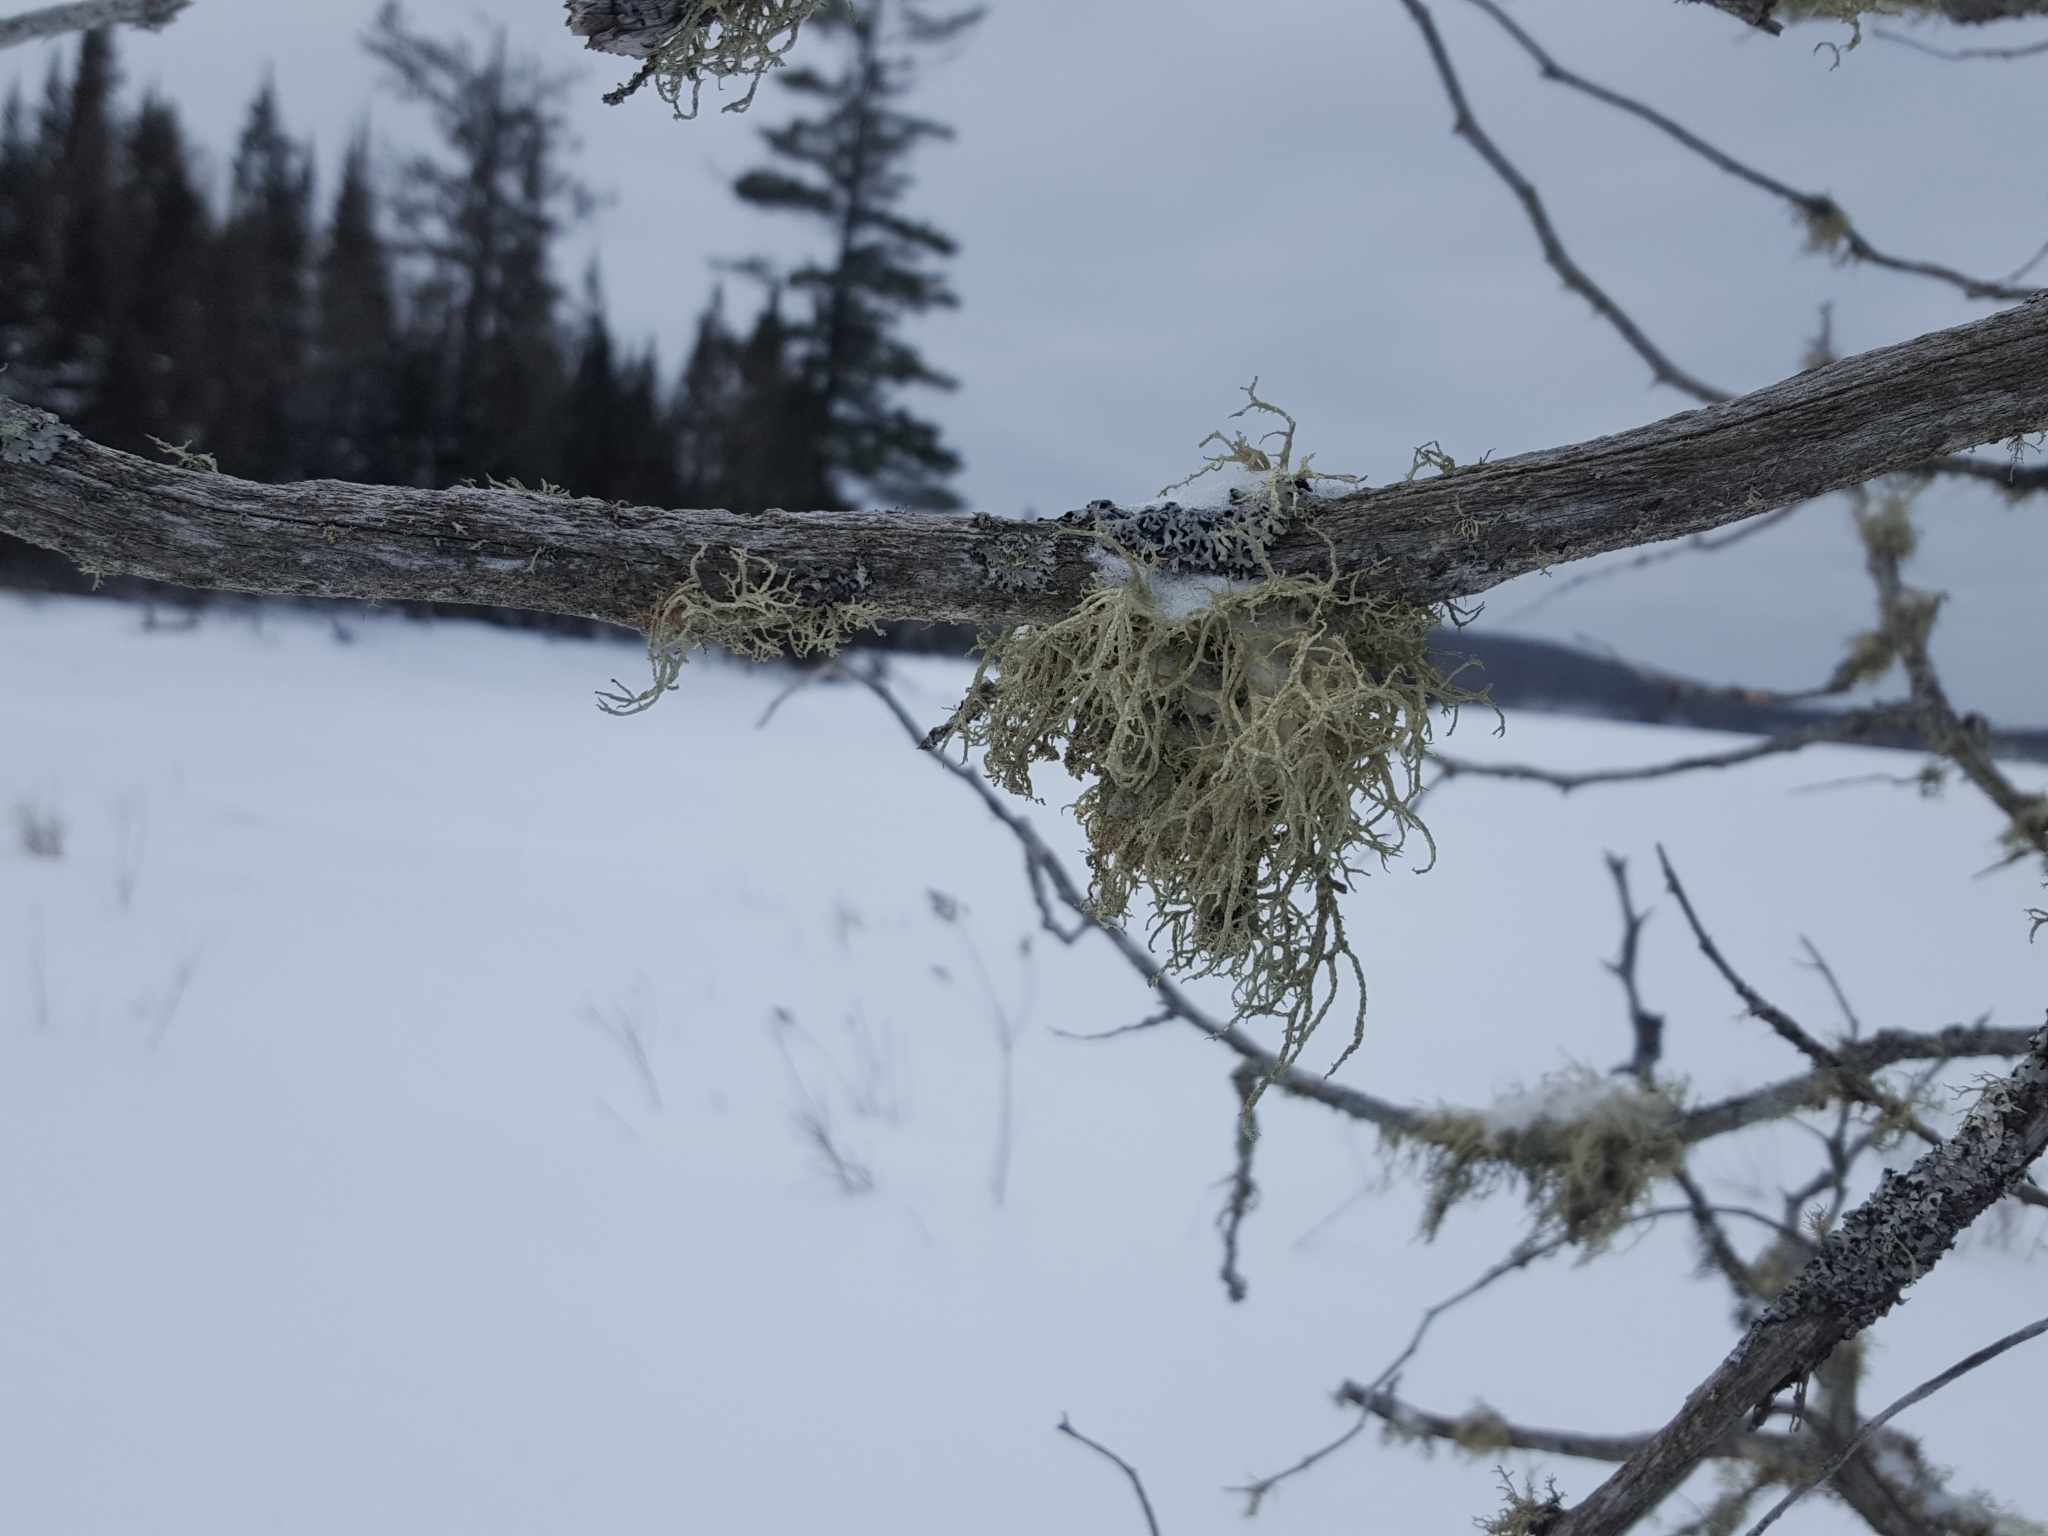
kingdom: Fungi
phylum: Ascomycota
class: Lecanoromycetes
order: Lecanorales
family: Parmeliaceae
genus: Evernia
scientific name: Evernia mesomorpha
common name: Boreal oak moss lichen
